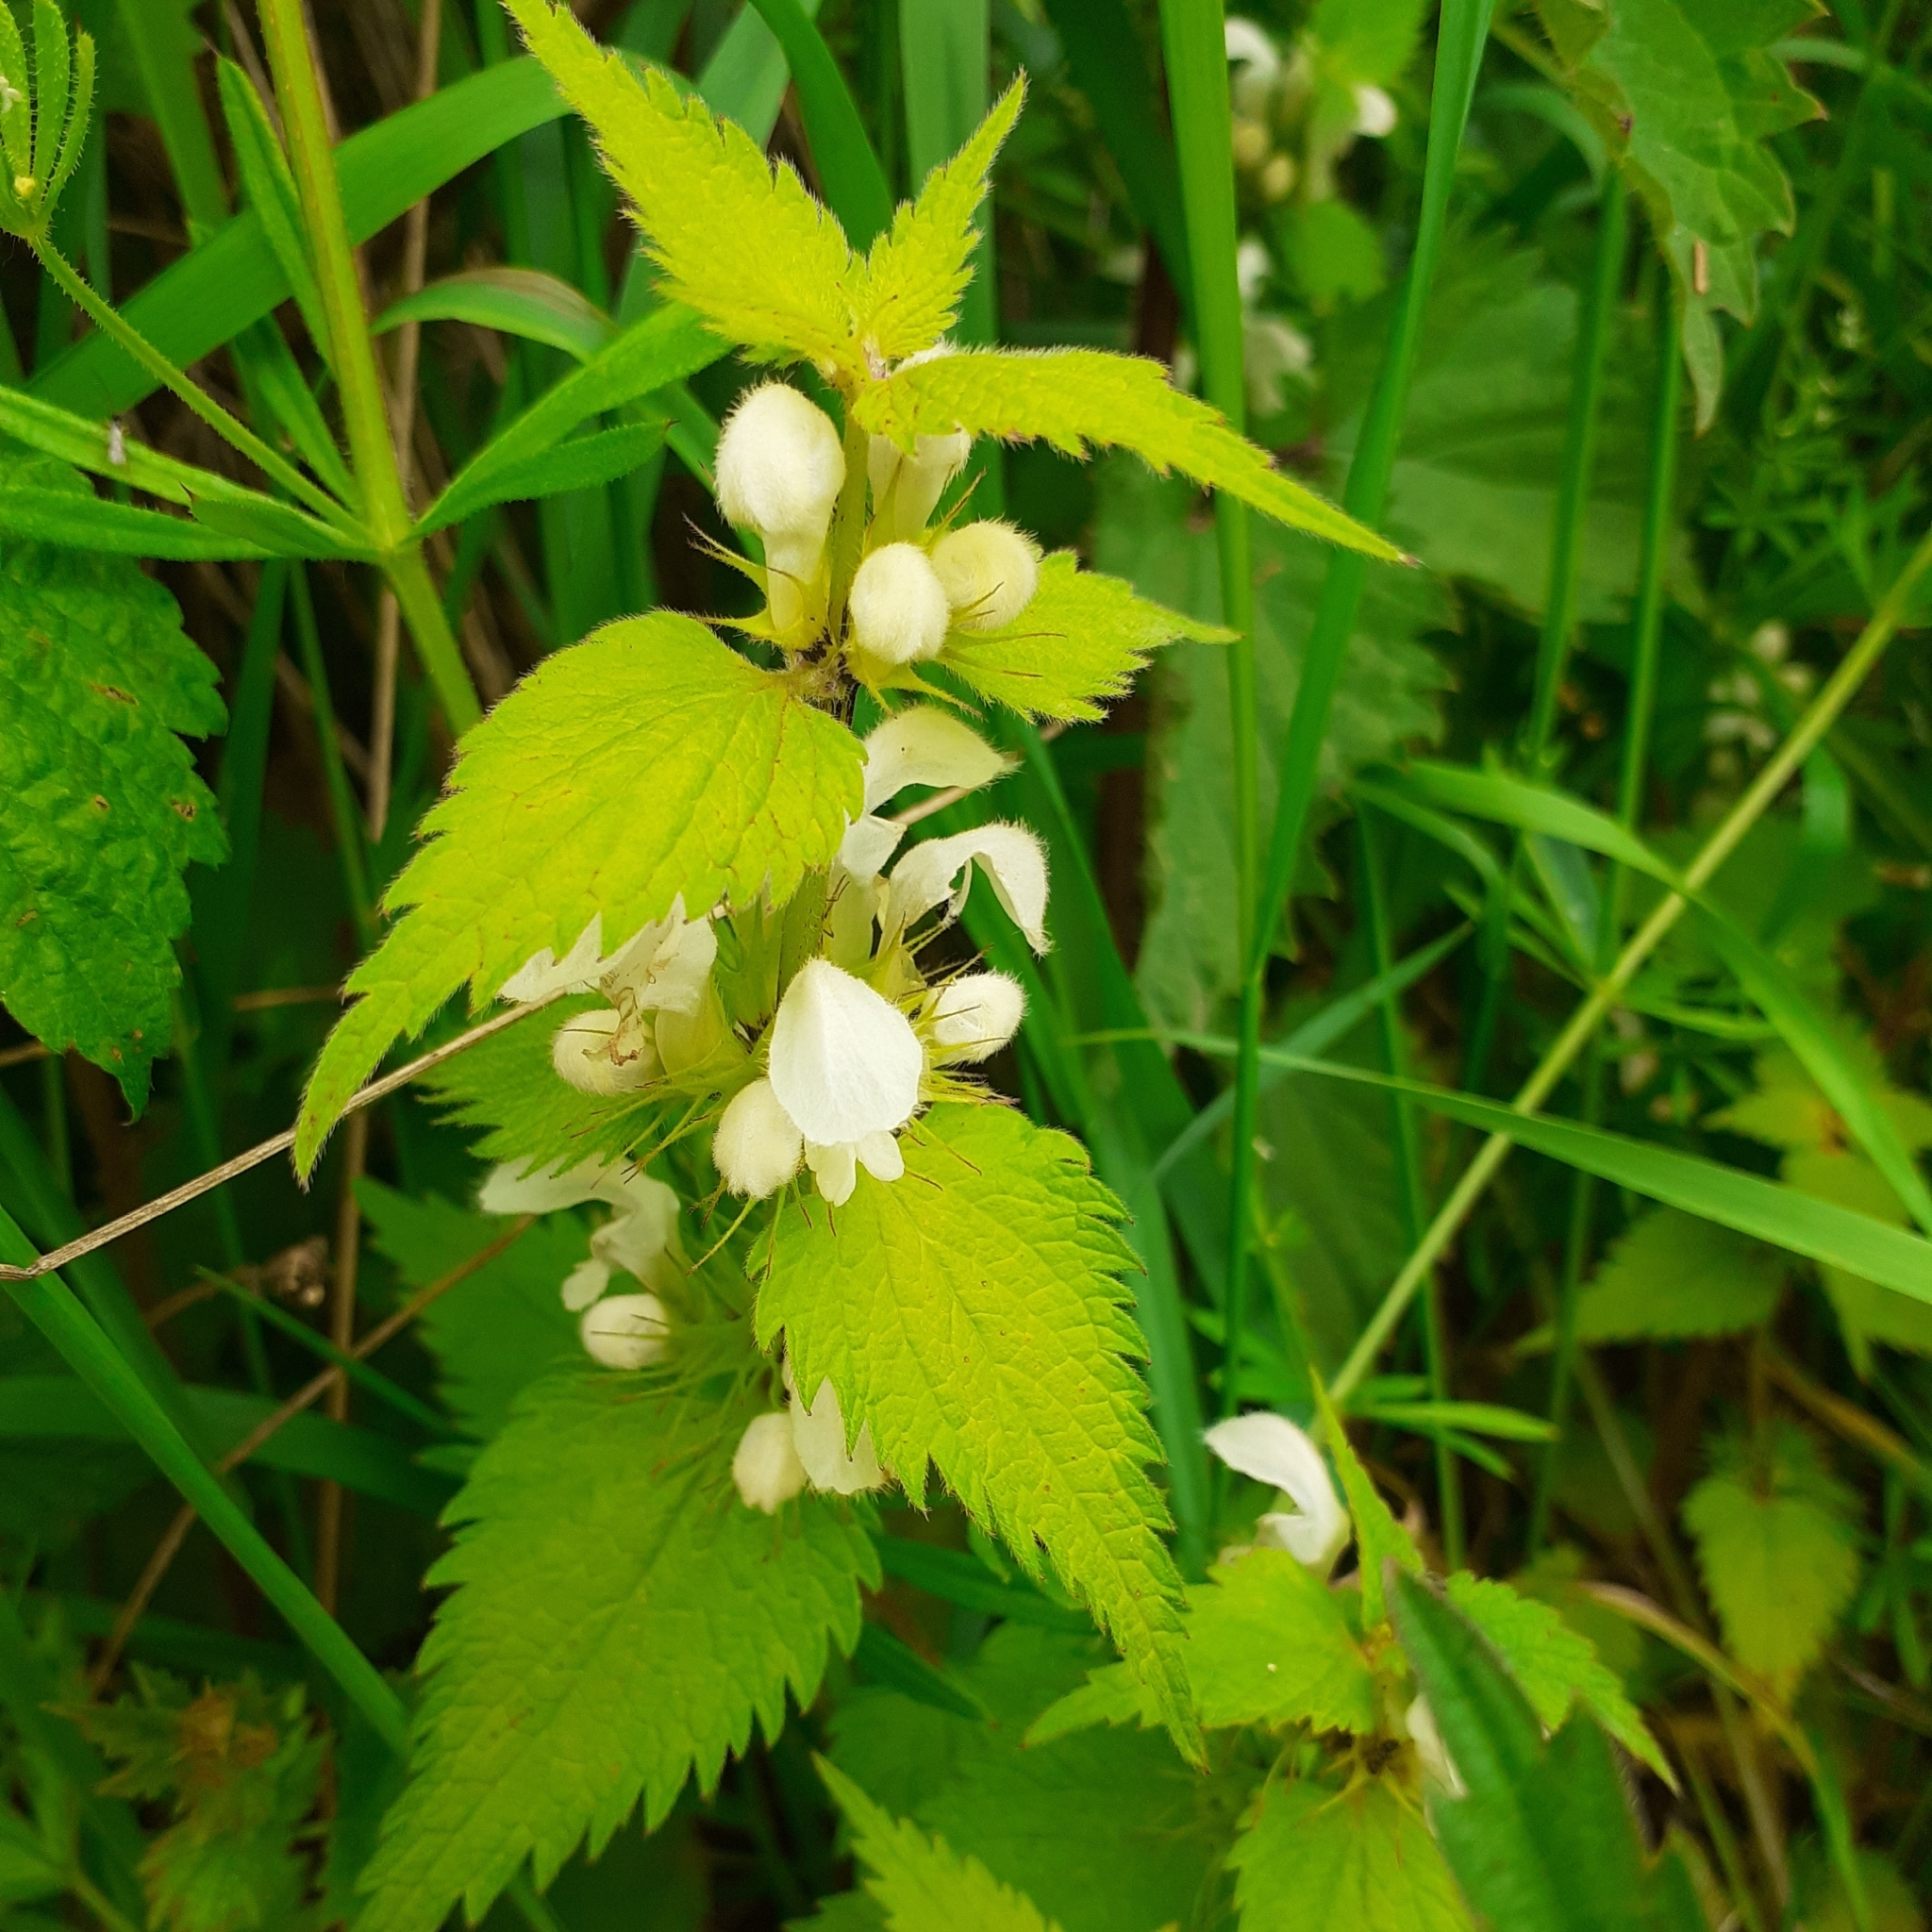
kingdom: Plantae
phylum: Tracheophyta
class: Magnoliopsida
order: Lamiales
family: Lamiaceae
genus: Lamium
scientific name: Lamium album
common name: White dead-nettle
